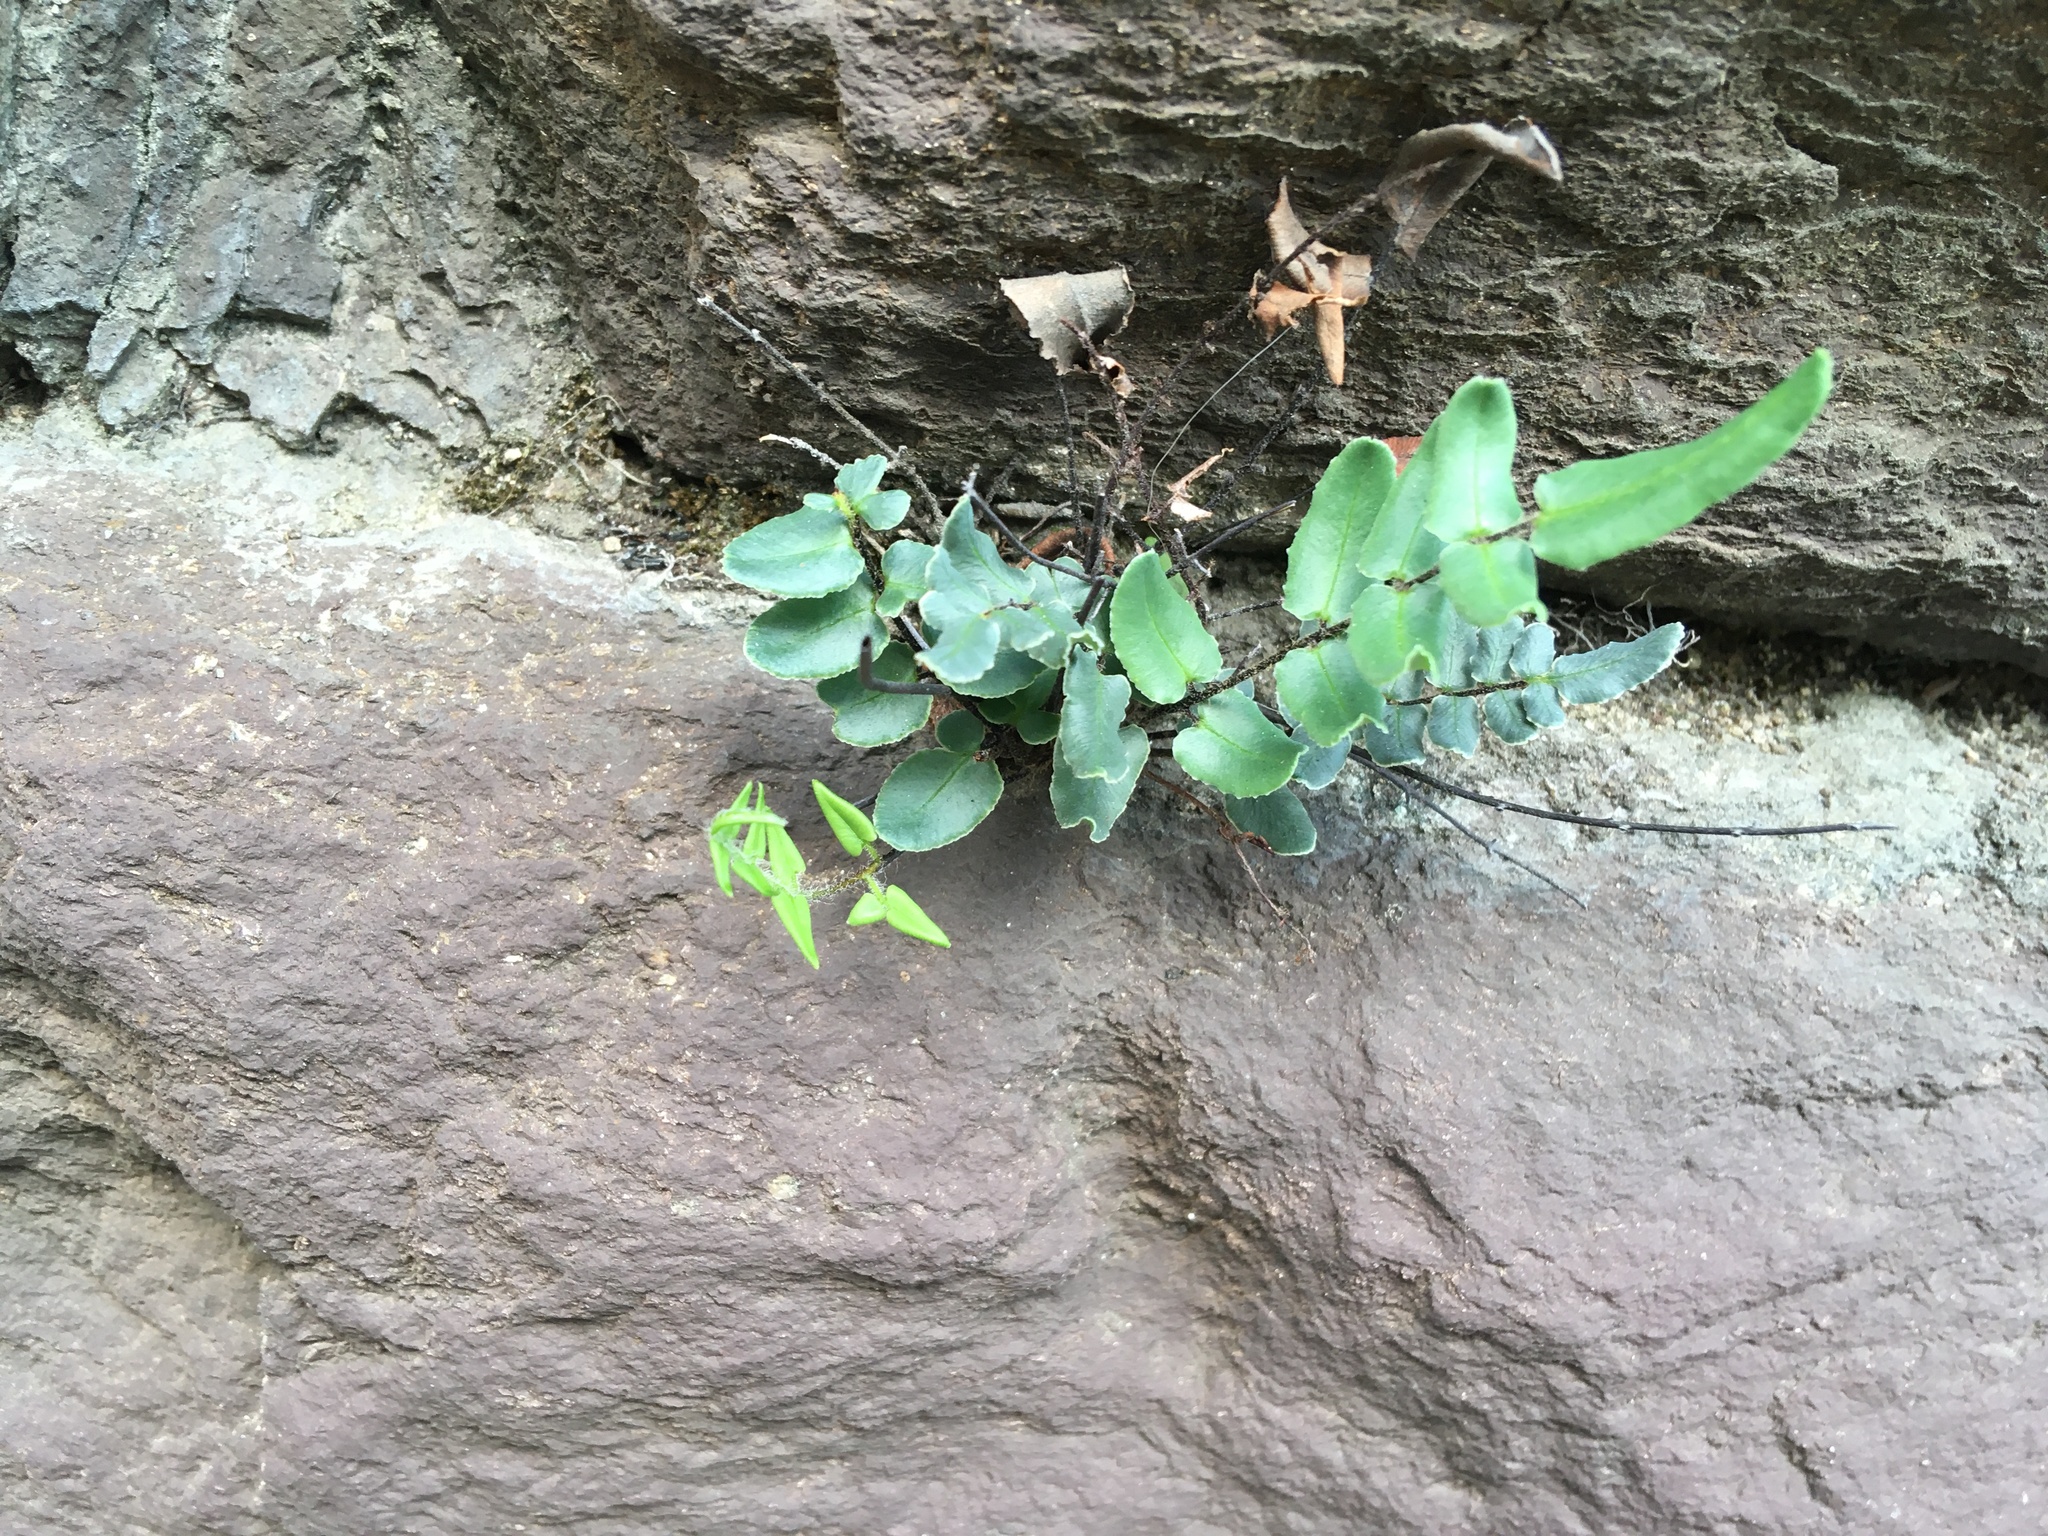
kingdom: Plantae
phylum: Tracheophyta
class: Polypodiopsida
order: Polypodiales
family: Pteridaceae
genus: Pellaea
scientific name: Pellaea atropurpurea
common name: Hairy cliffbrake
